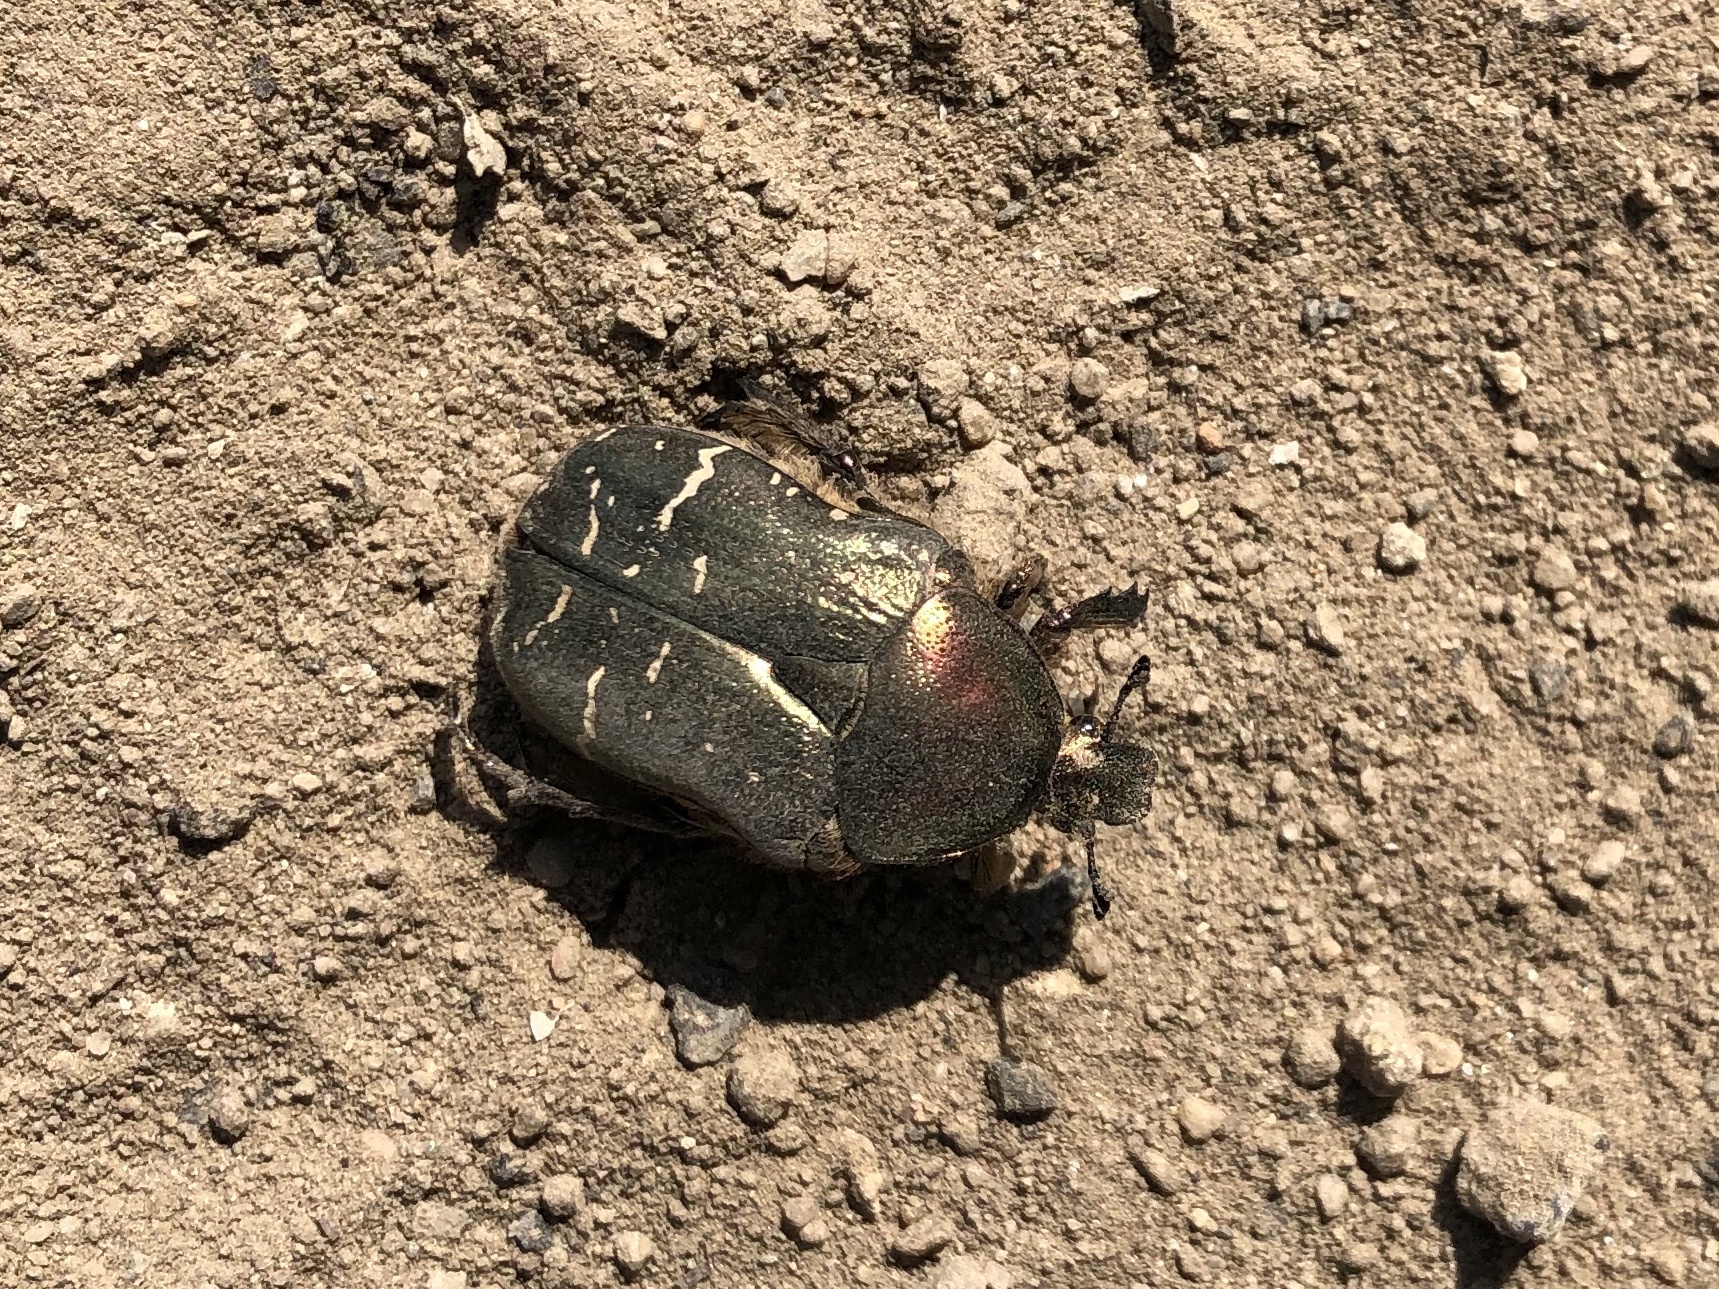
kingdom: Animalia
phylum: Arthropoda
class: Insecta
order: Coleoptera
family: Scarabaeidae
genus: Cetonia
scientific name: Cetonia aurata
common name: Rose chafer
